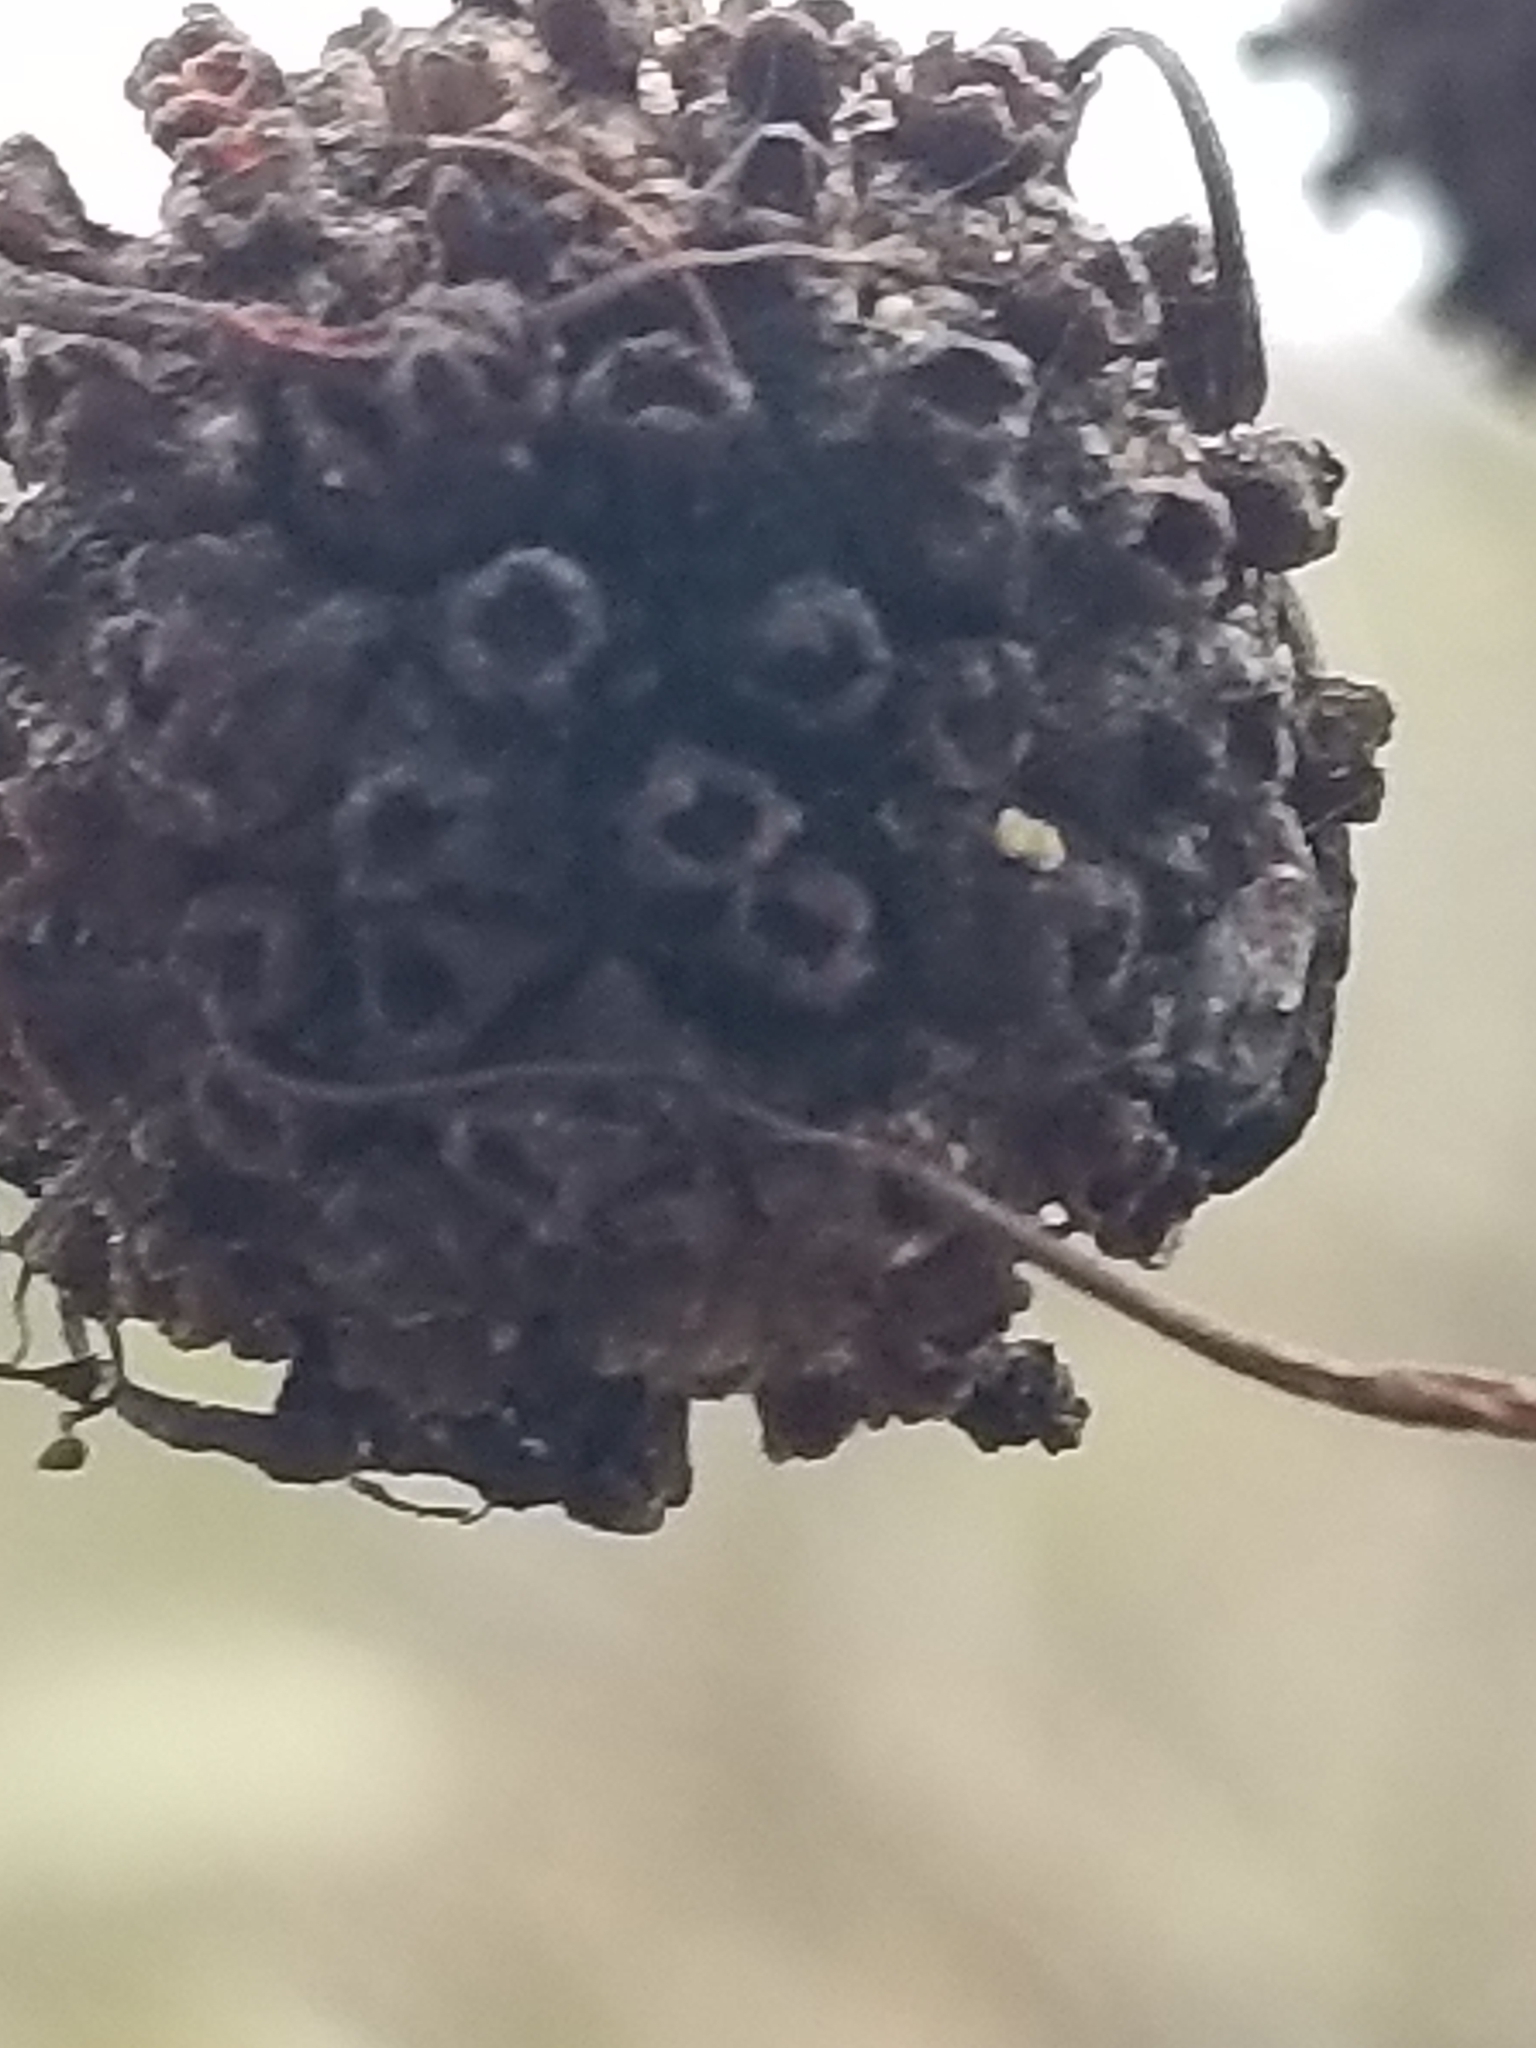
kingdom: Plantae
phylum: Tracheophyta
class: Magnoliopsida
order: Gentianales
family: Rubiaceae
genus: Cephalanthus
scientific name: Cephalanthus occidentalis
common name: Button-willow
